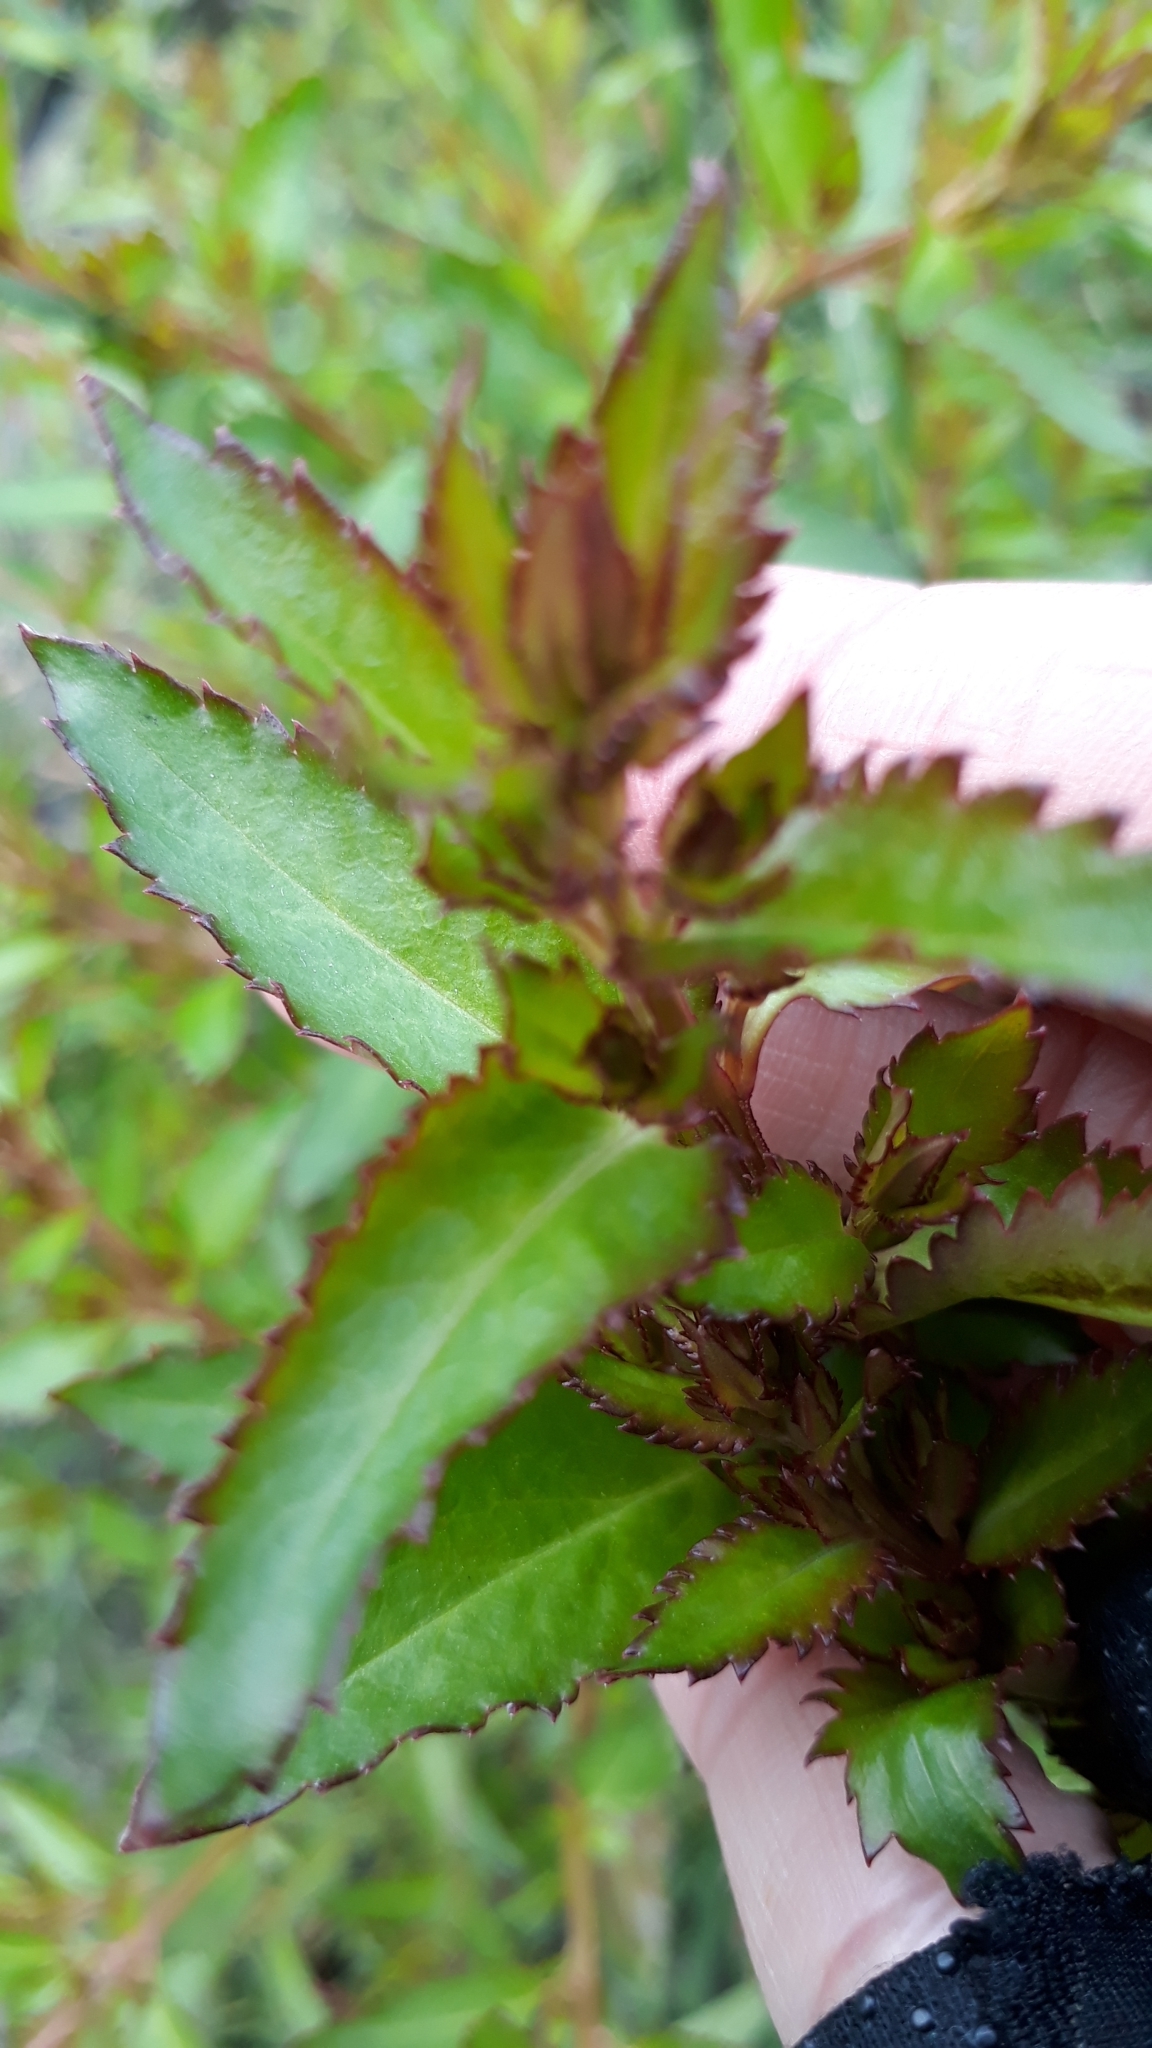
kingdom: Plantae
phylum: Tracheophyta
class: Magnoliopsida
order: Saxifragales
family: Haloragaceae
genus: Haloragis
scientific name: Haloragis erecta
